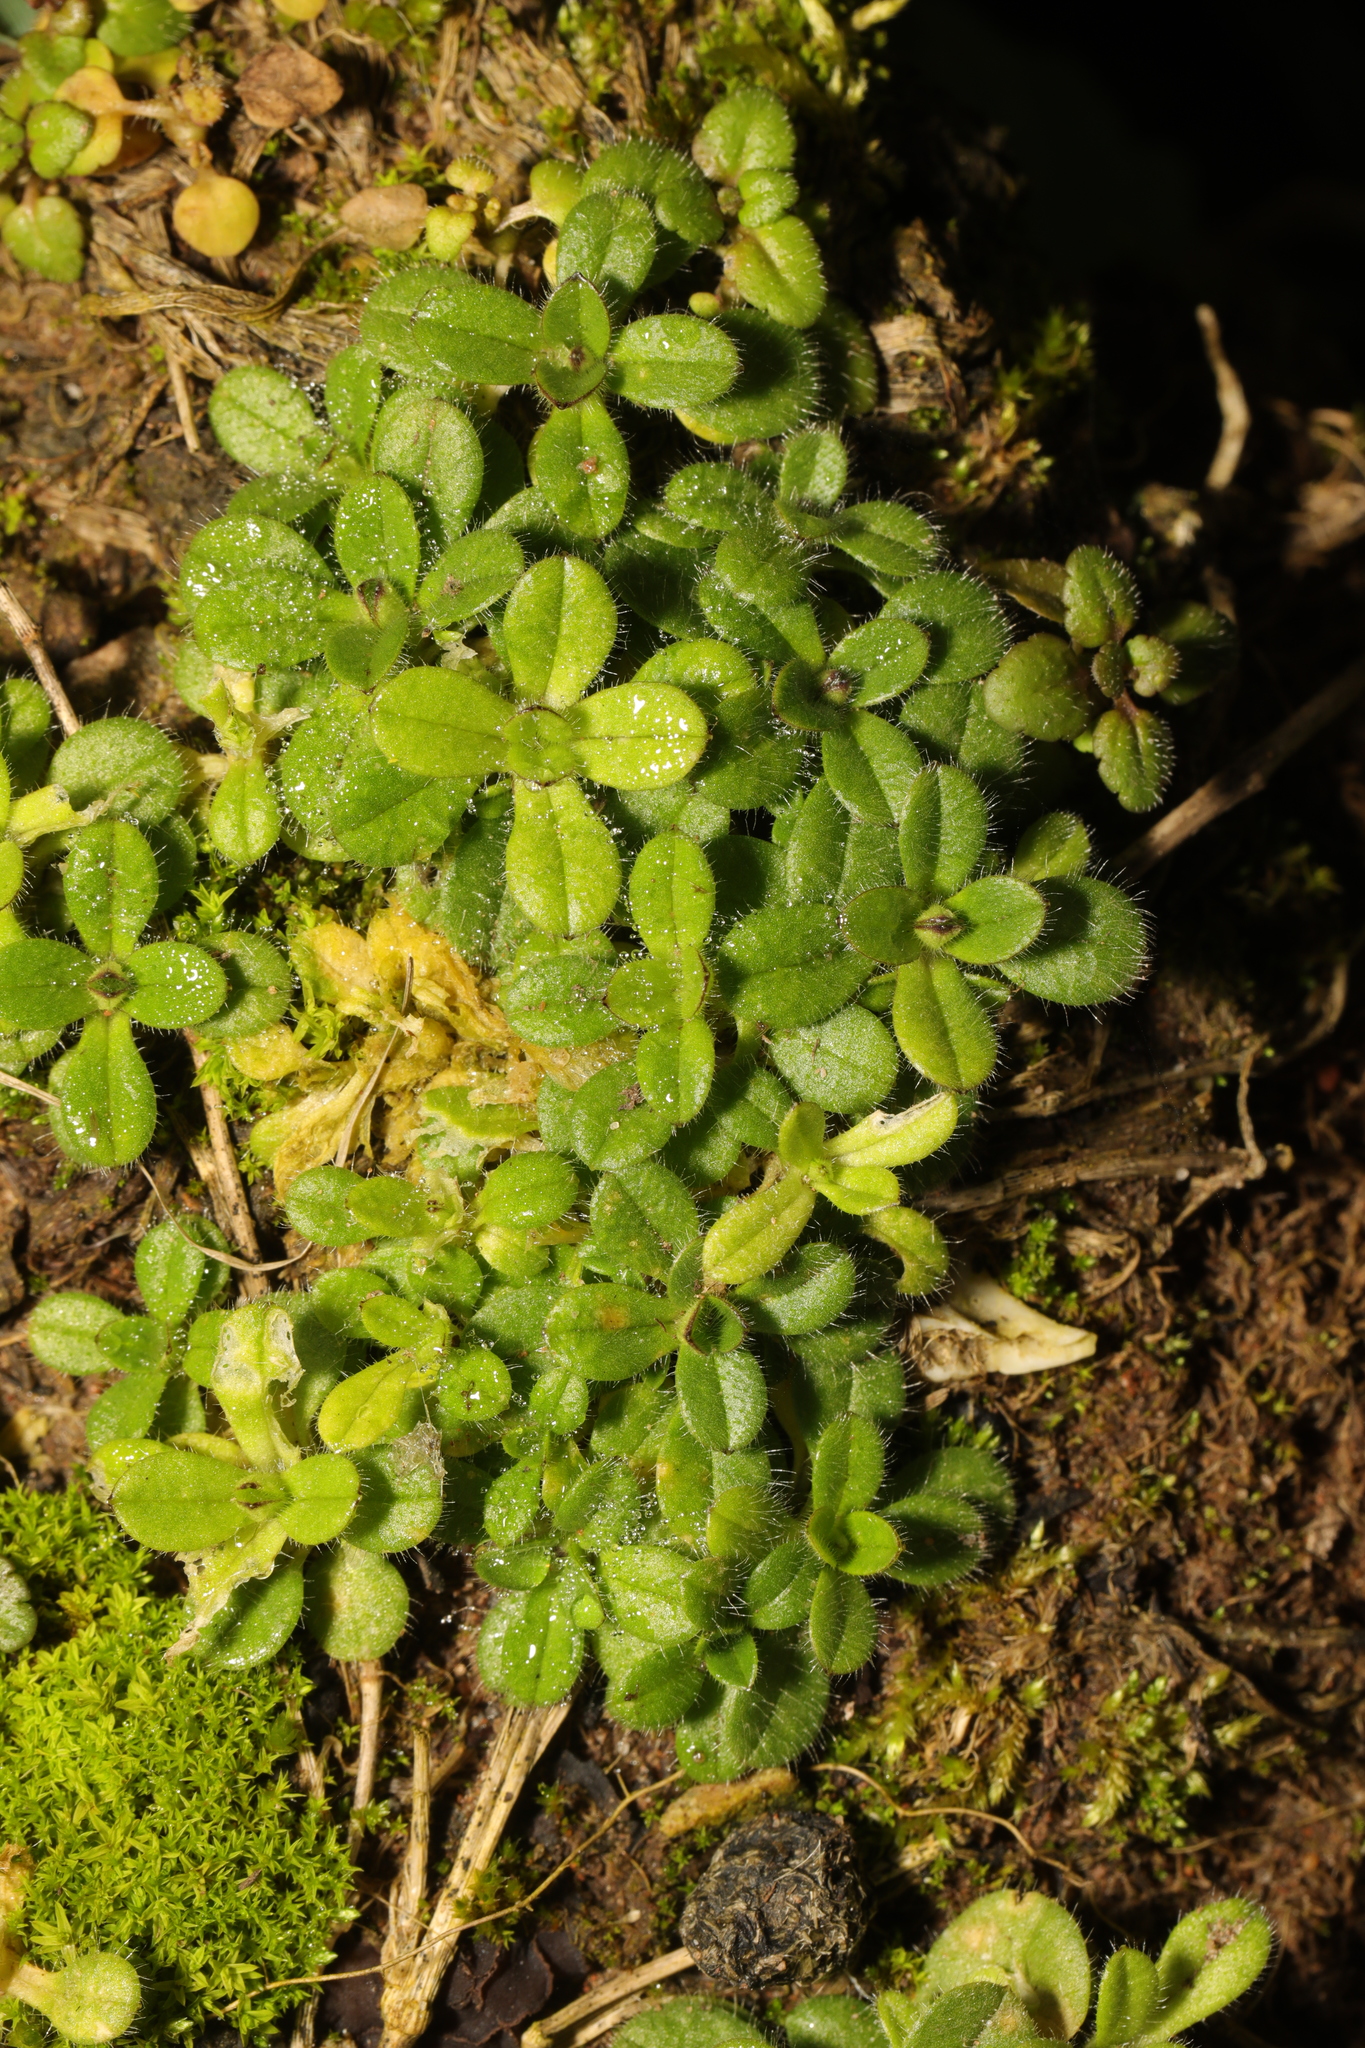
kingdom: Plantae
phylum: Tracheophyta
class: Magnoliopsida
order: Caryophyllales
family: Caryophyllaceae
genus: Cerastium
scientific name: Cerastium fontanum
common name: Common mouse-ear
